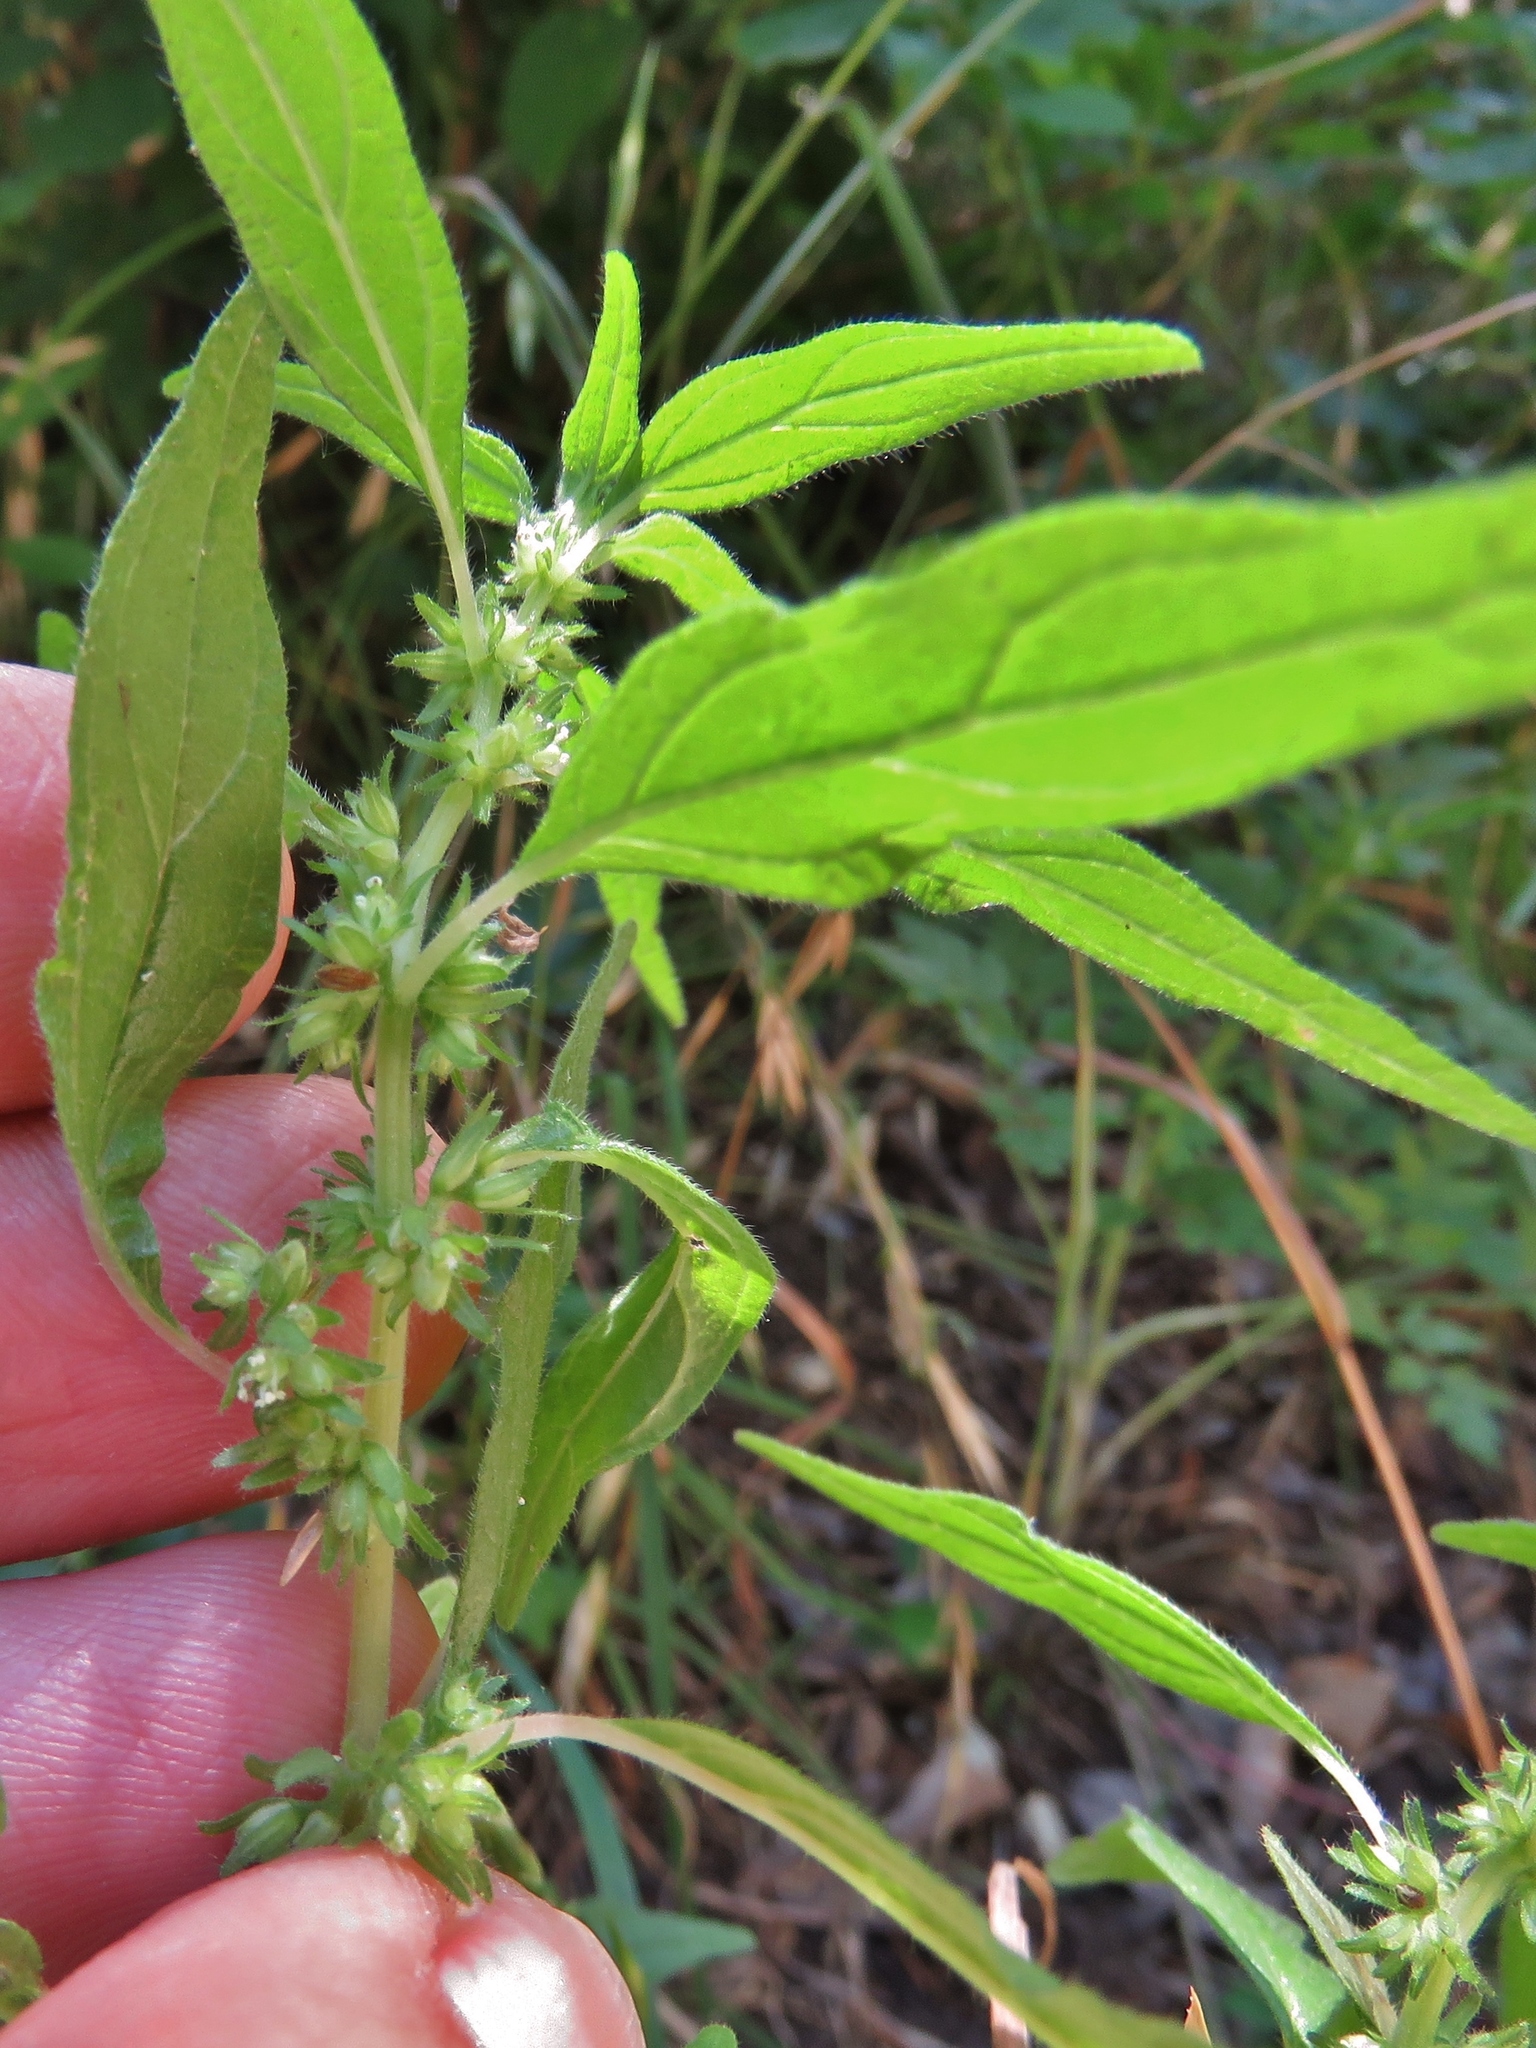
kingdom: Plantae
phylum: Tracheophyta
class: Magnoliopsida
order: Rosales
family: Urticaceae
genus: Parietaria
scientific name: Parietaria pensylvanica
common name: Pennsylvania pellitory
